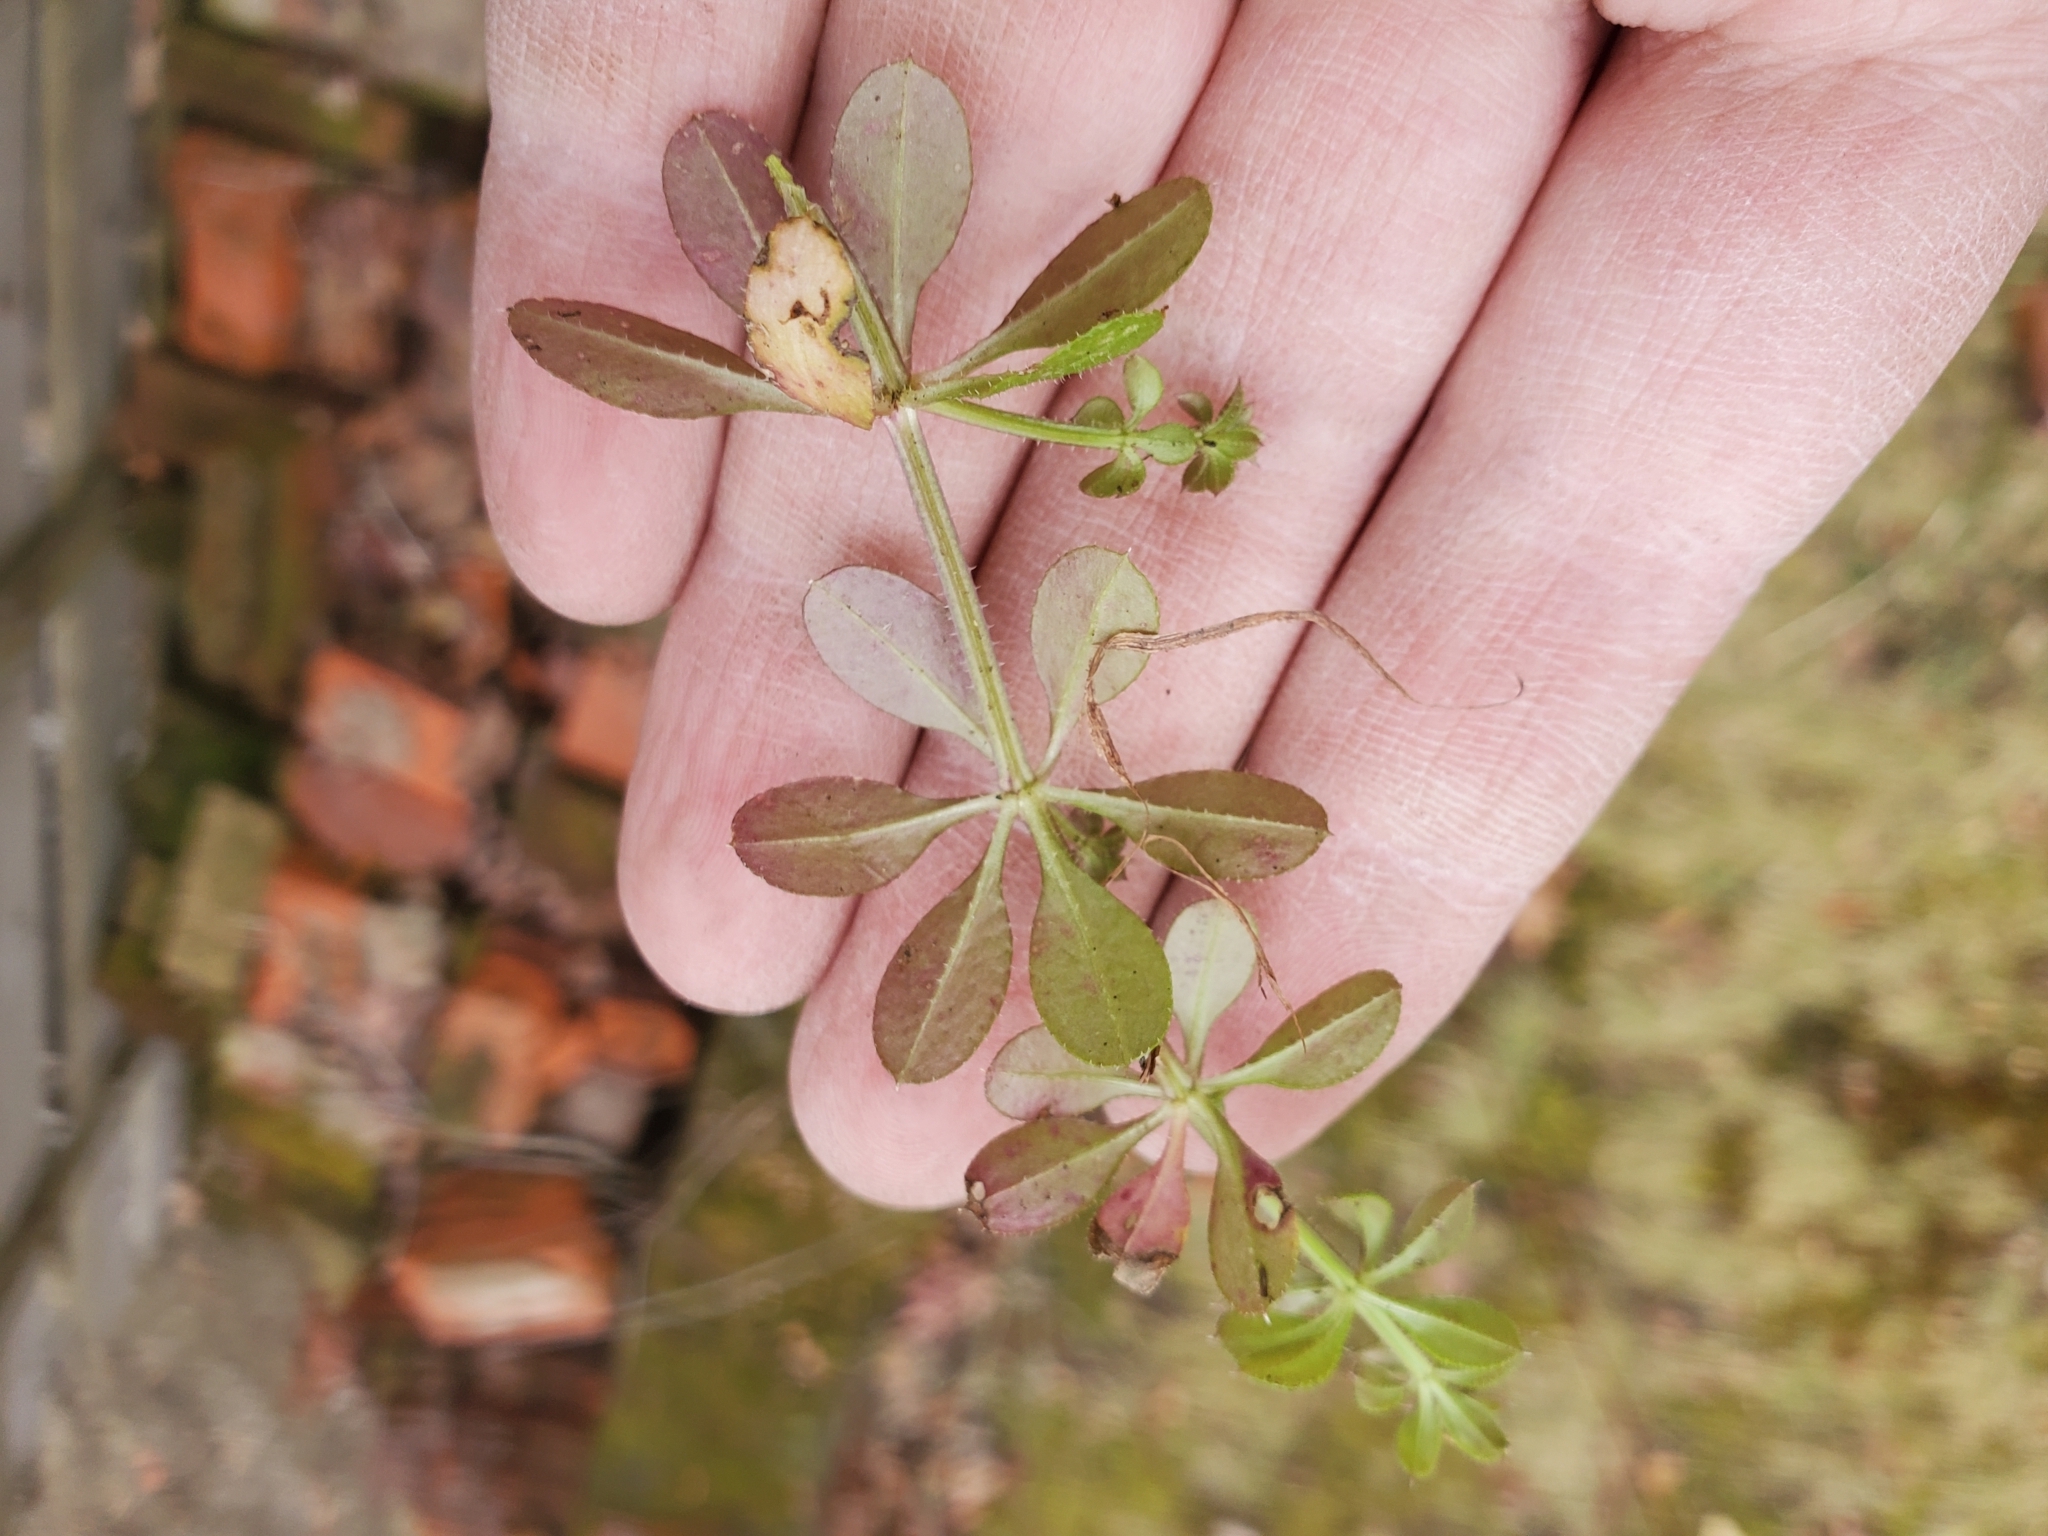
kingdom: Plantae
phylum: Tracheophyta
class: Magnoliopsida
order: Gentianales
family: Rubiaceae
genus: Galium
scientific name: Galium aparine
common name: Cleavers
